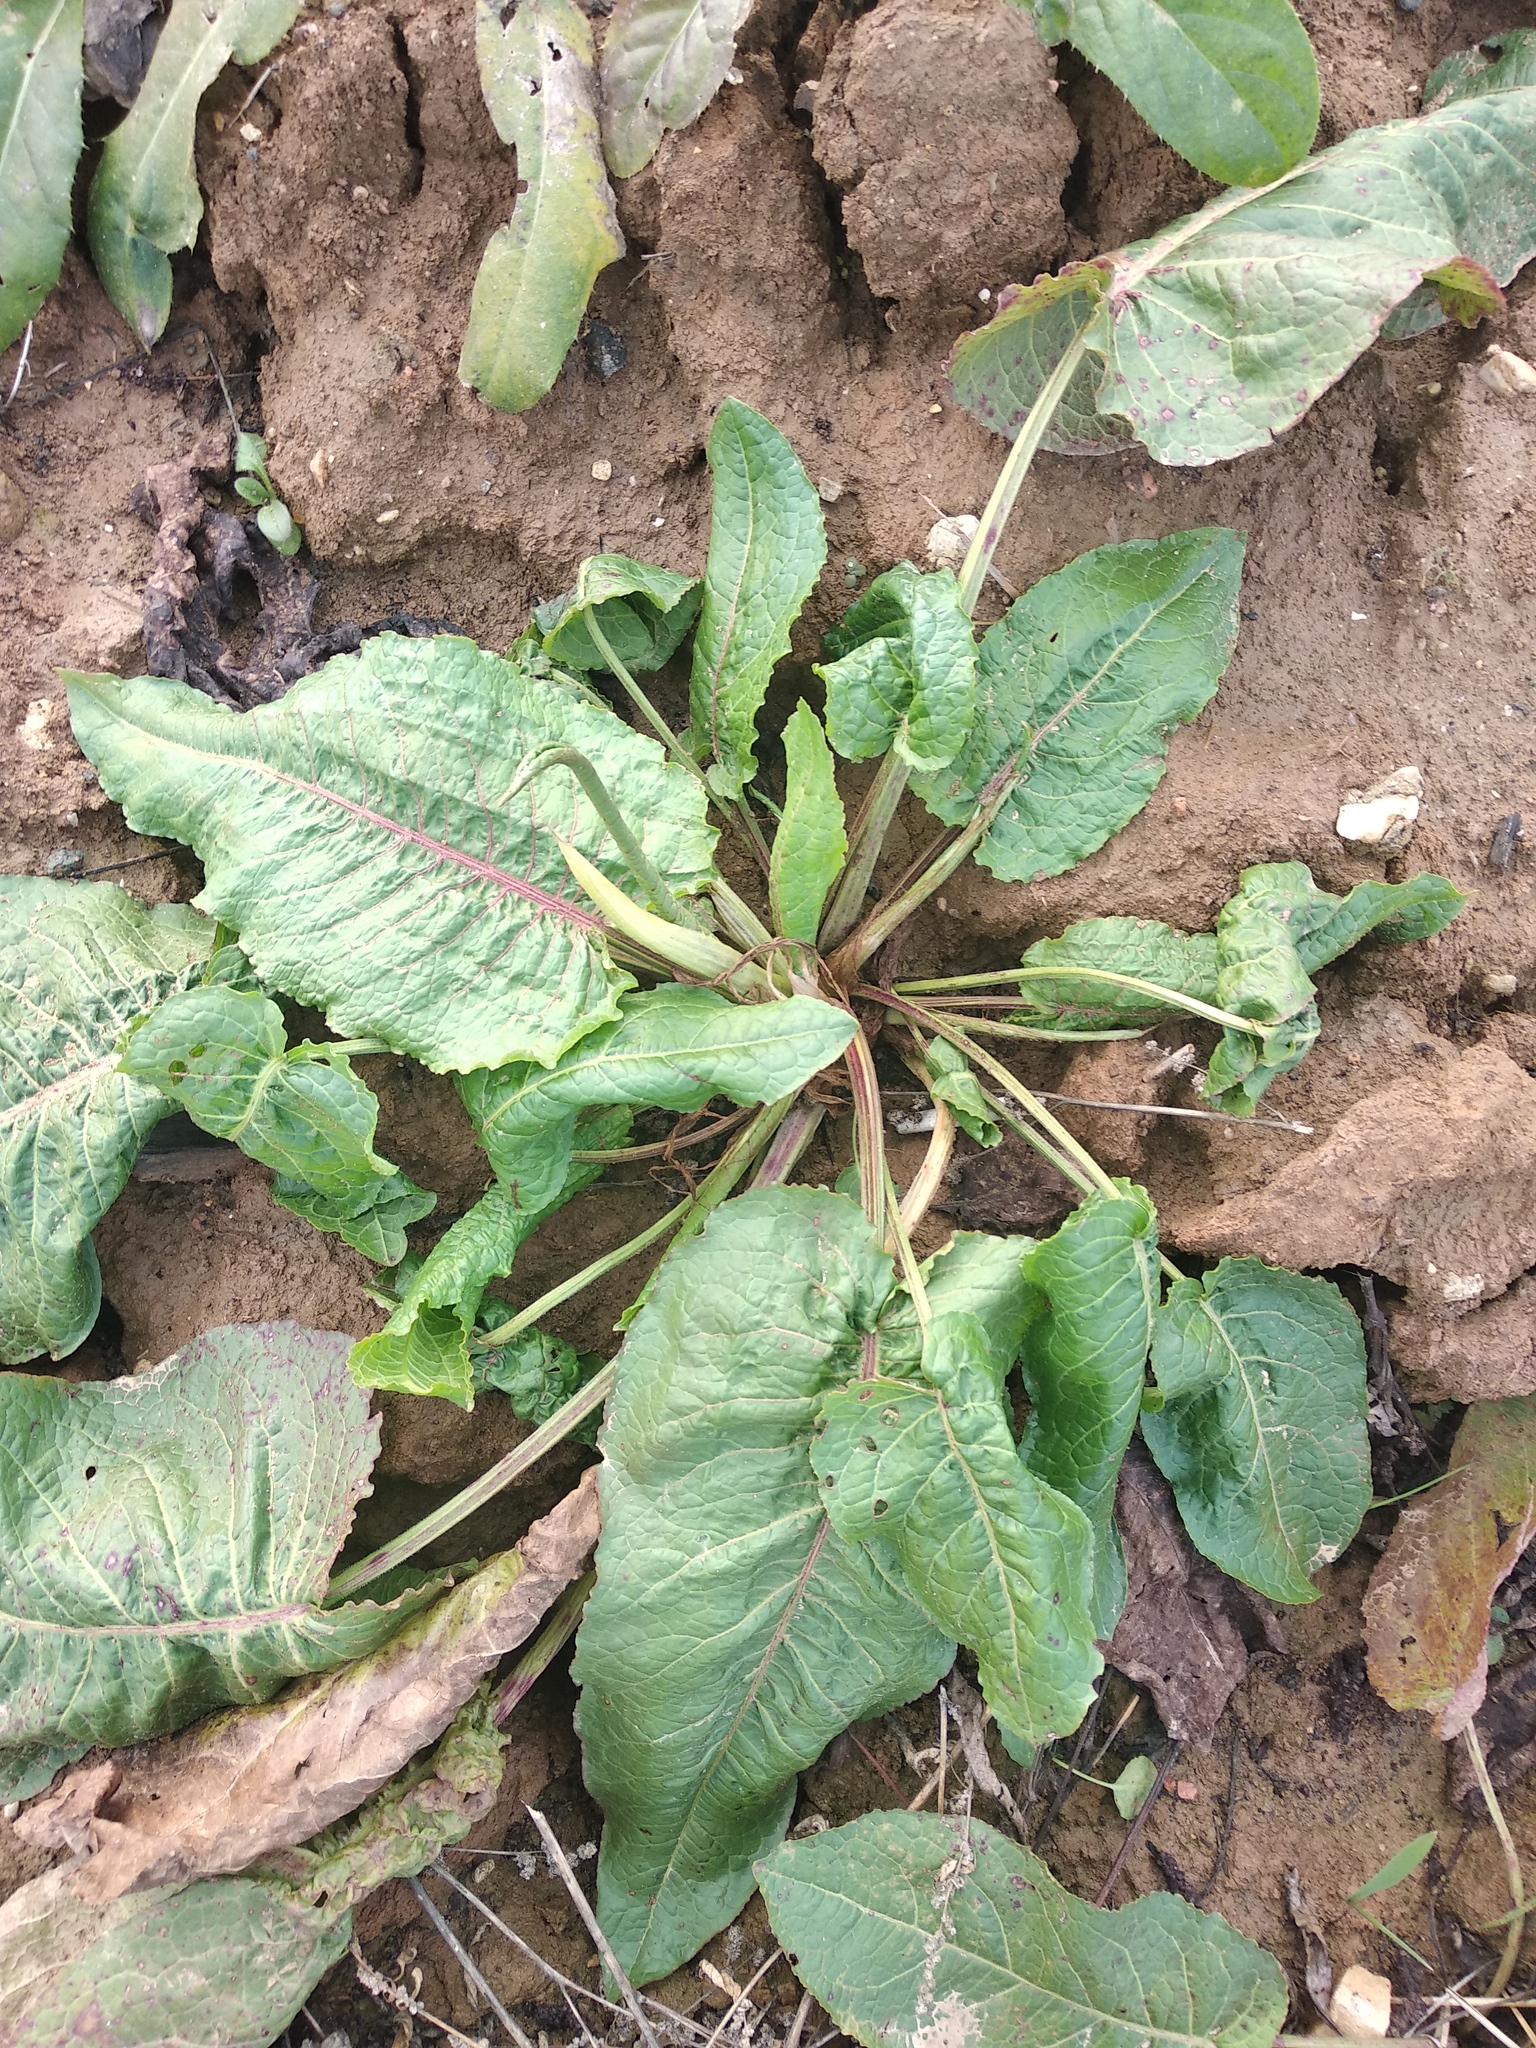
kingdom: Plantae
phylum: Tracheophyta
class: Magnoliopsida
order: Caryophyllales
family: Polygonaceae
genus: Rumex
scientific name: Rumex obtusifolius
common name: Bitter dock
